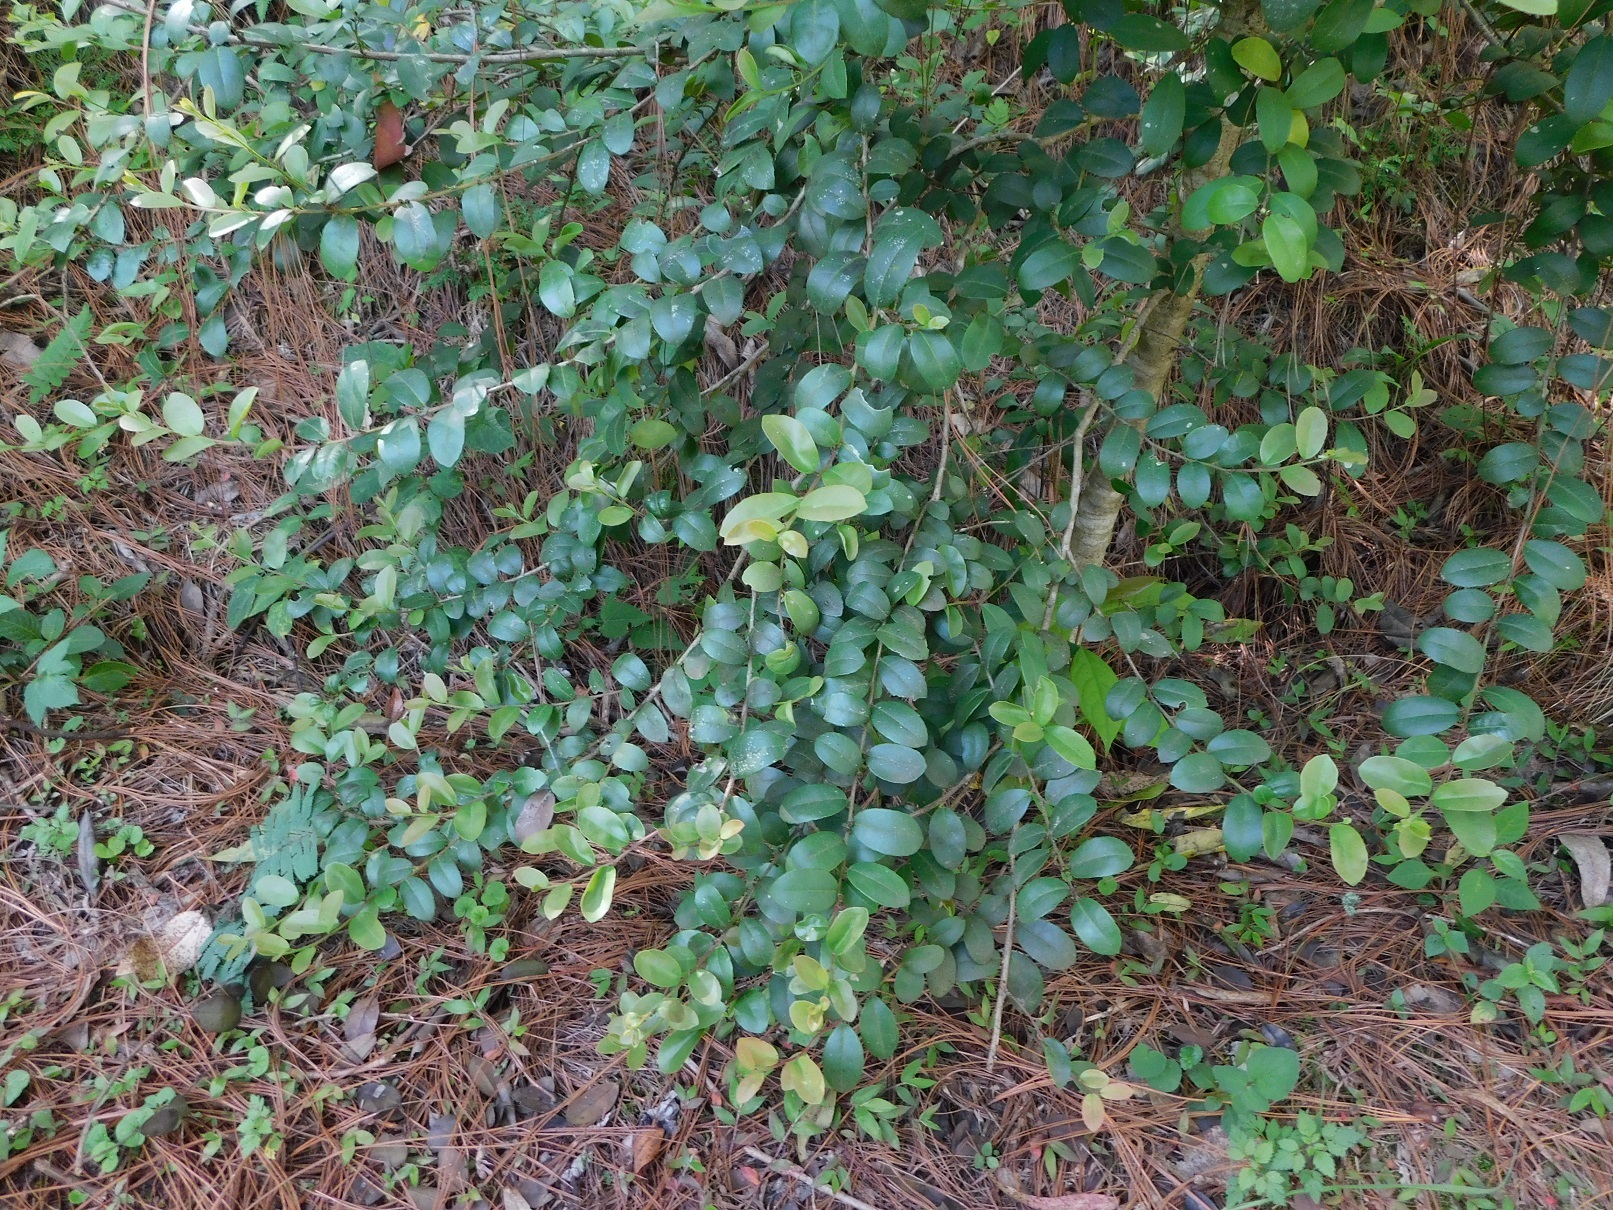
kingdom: Plantae
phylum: Tracheophyta
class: Magnoliopsida
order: Aquifoliales
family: Aquifoliaceae
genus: Ilex
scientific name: Ilex vomitoria
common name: Yaupon holly
